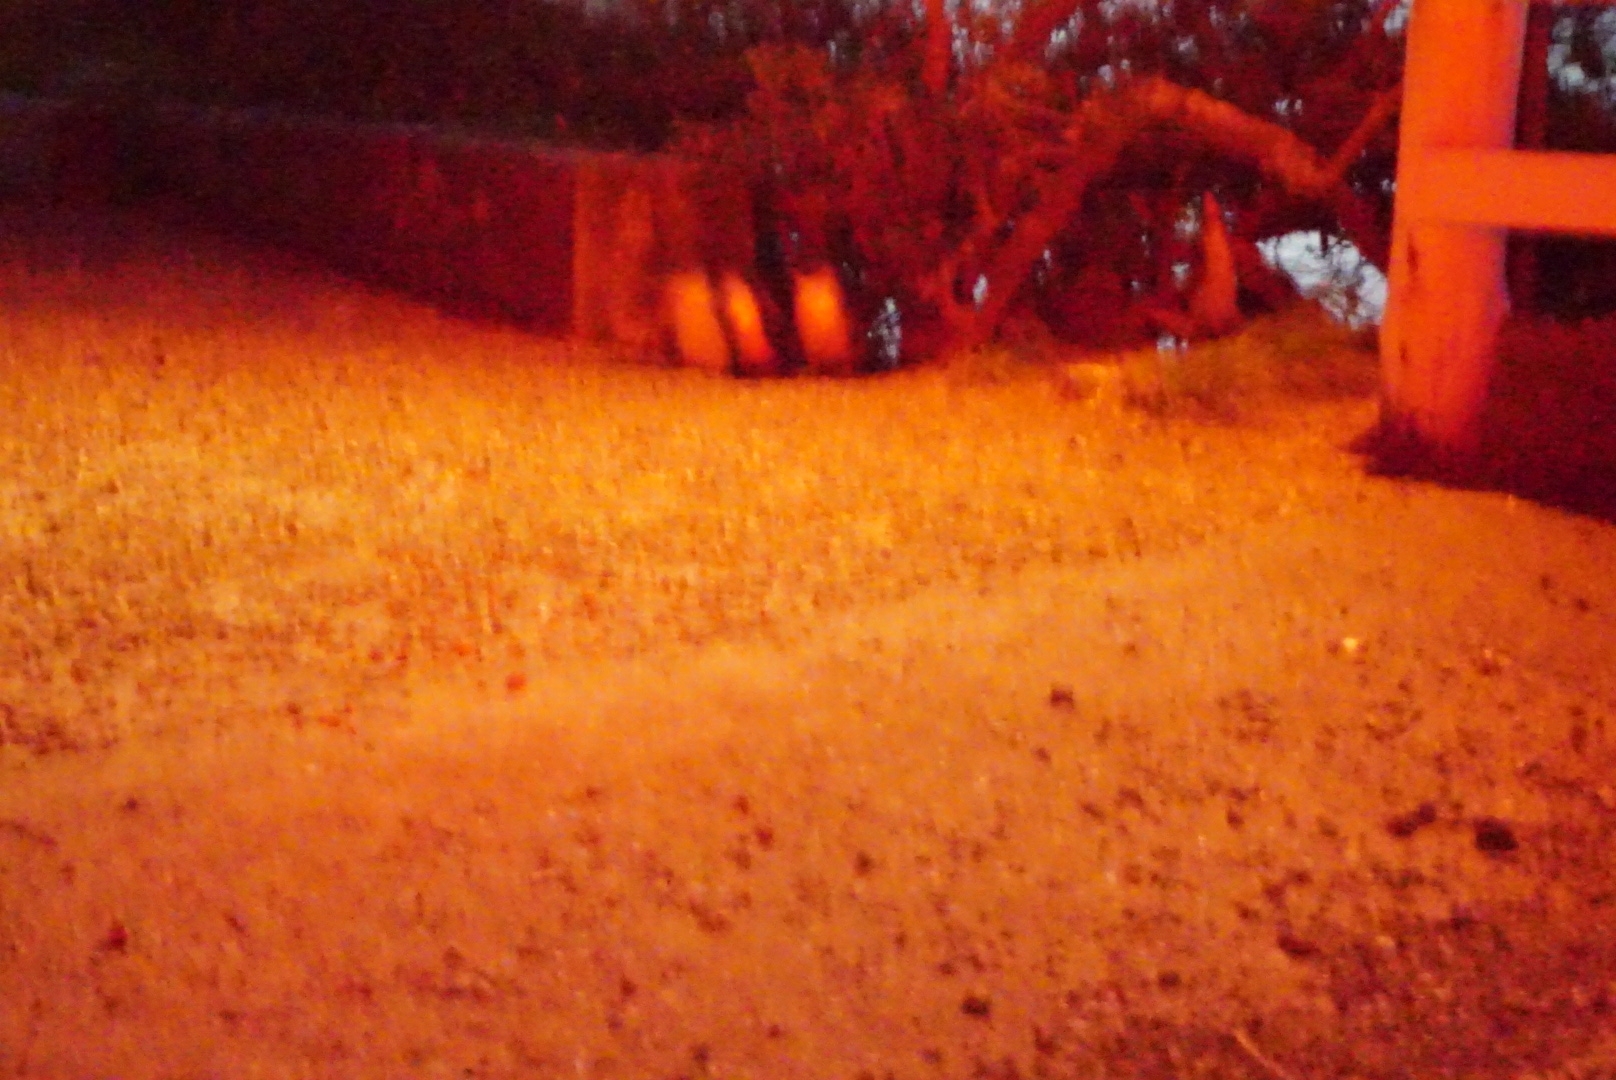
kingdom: Animalia
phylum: Chordata
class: Aves
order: Sphenisciformes
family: Spheniscidae
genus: Eudyptula
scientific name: Eudyptula minor
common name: Little penguin
